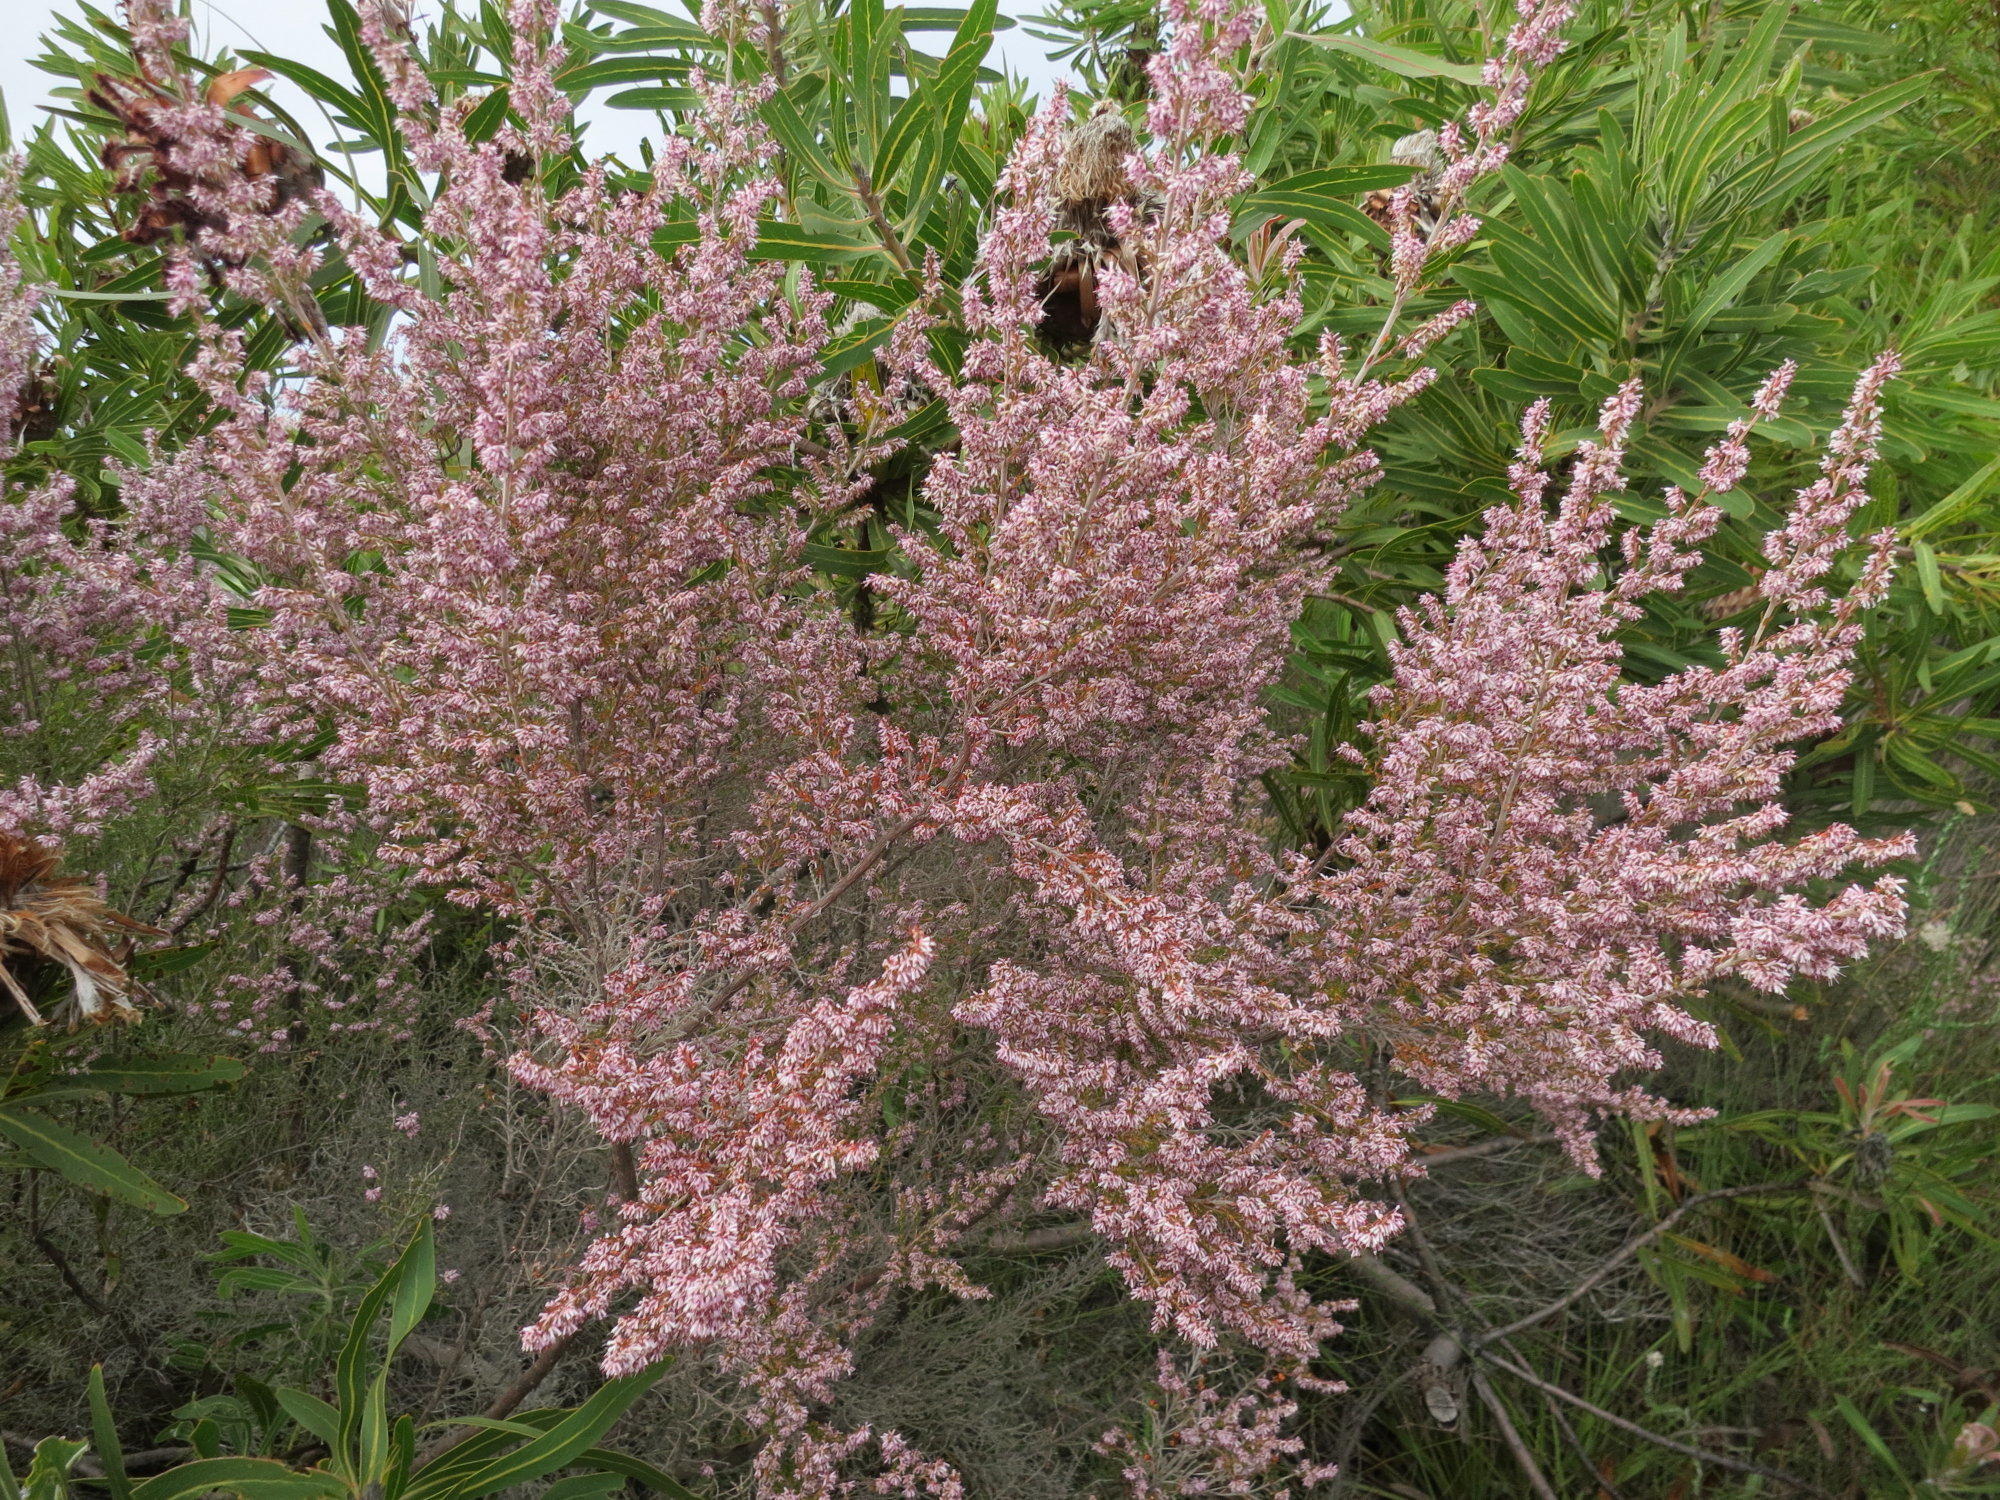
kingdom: Plantae
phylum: Tracheophyta
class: Magnoliopsida
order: Ericales
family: Ericaceae
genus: Erica
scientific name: Erica uberiflora
